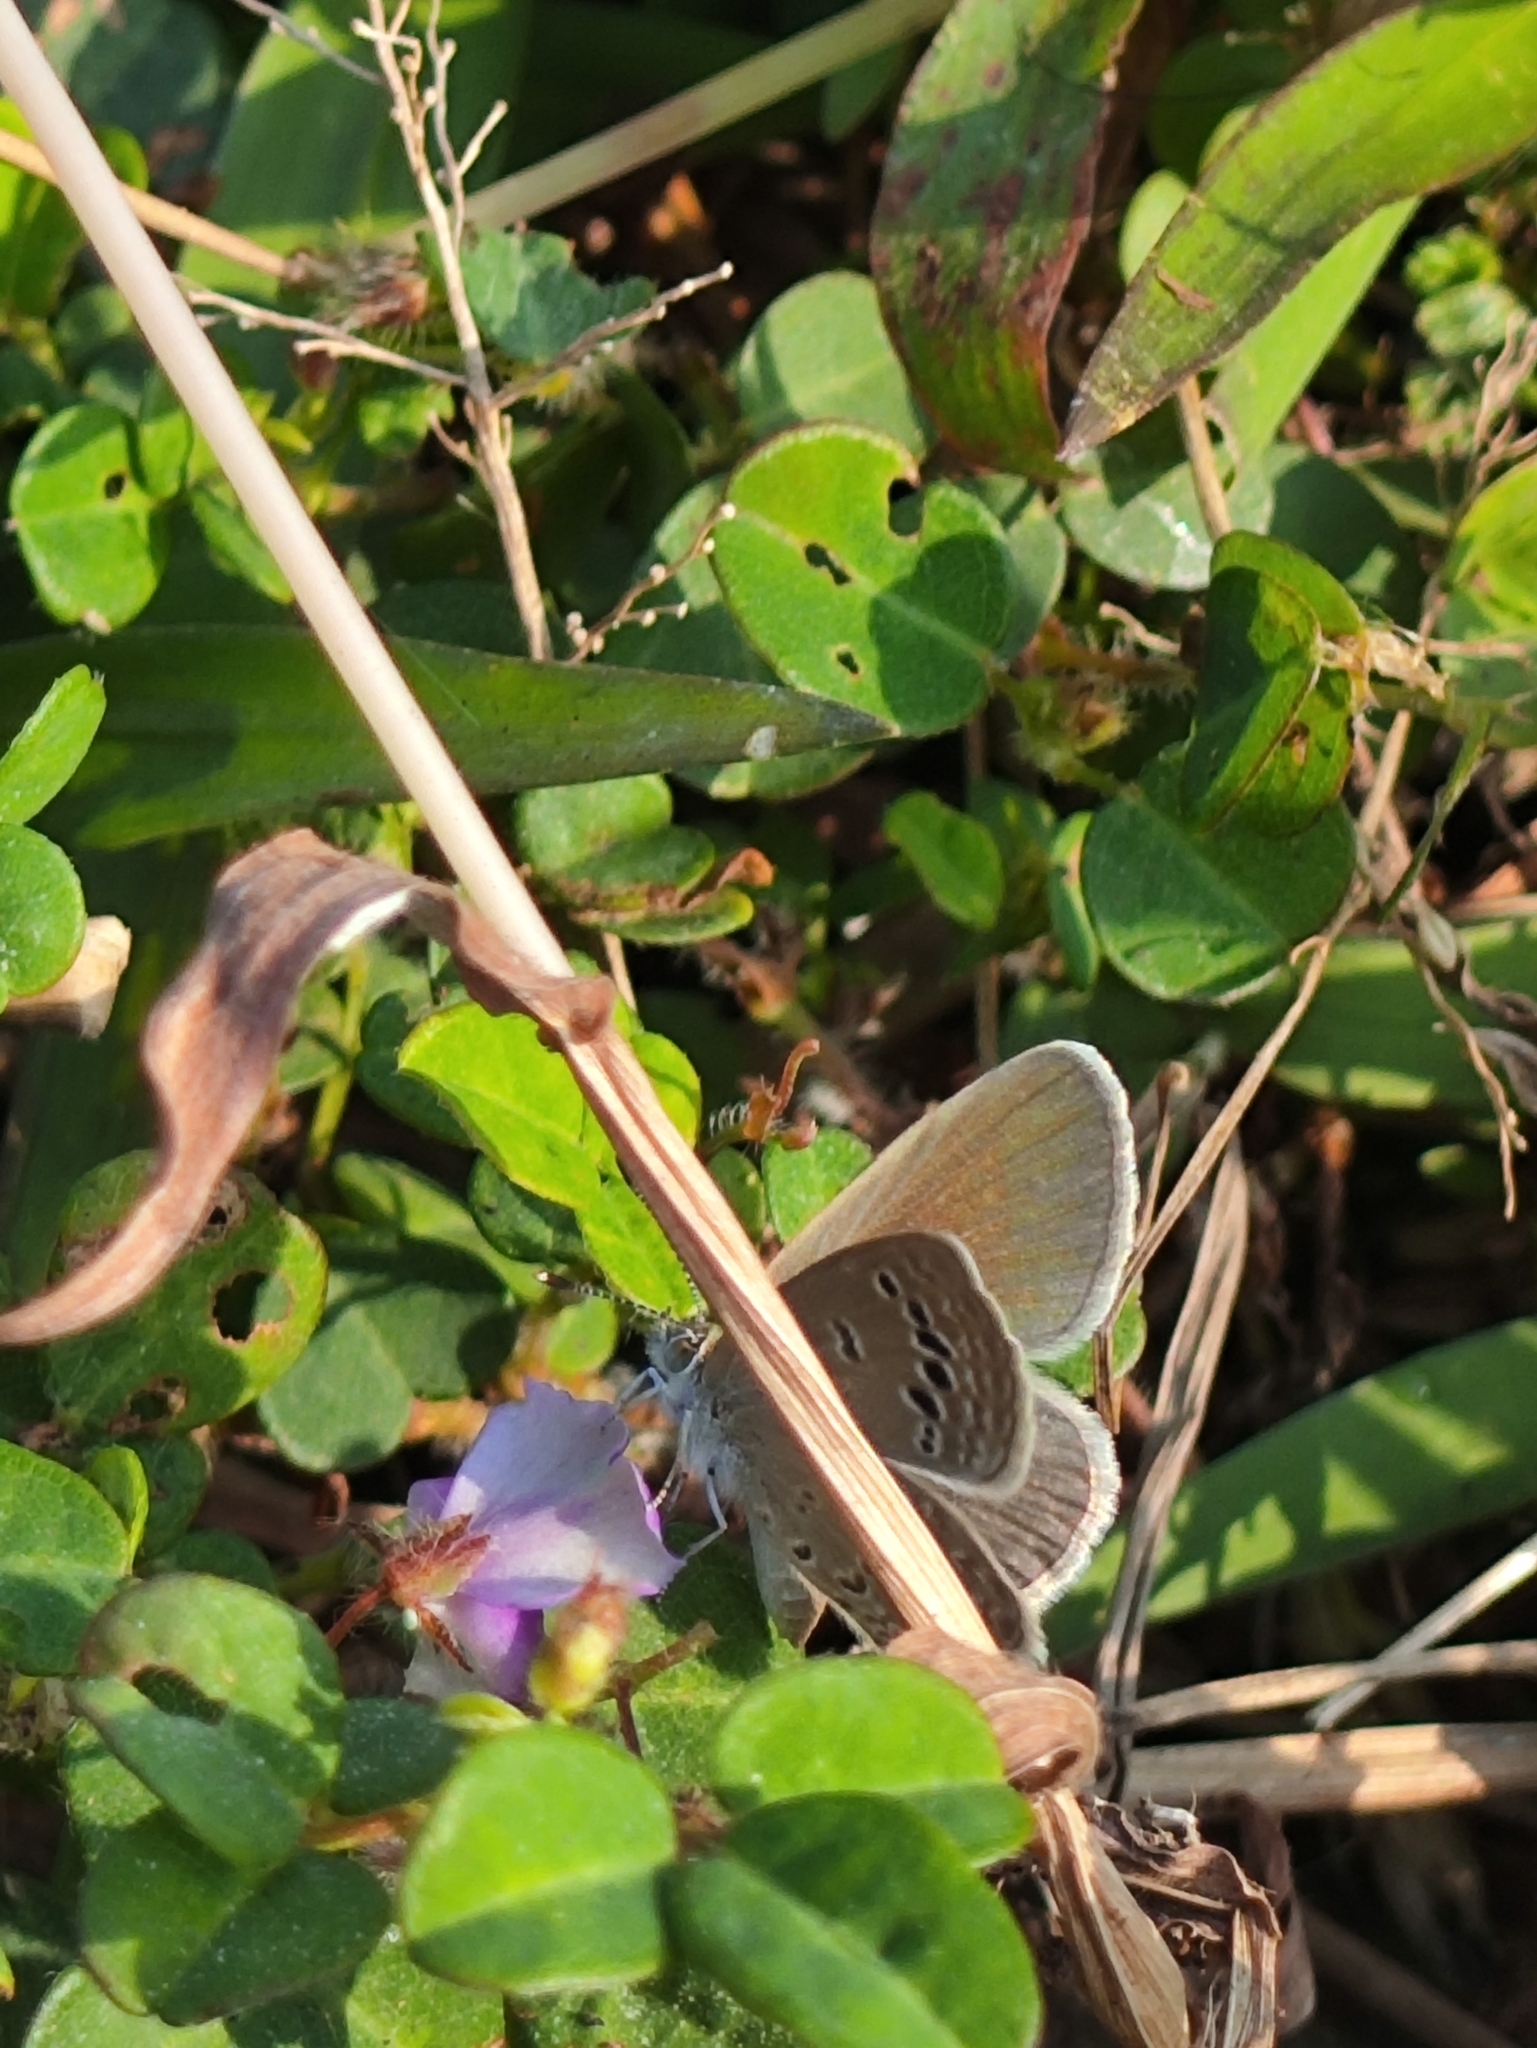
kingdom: Animalia
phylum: Arthropoda
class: Insecta
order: Lepidoptera
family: Lycaenidae
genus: Zizina
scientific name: Zizina otis
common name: Lesser grass blue
